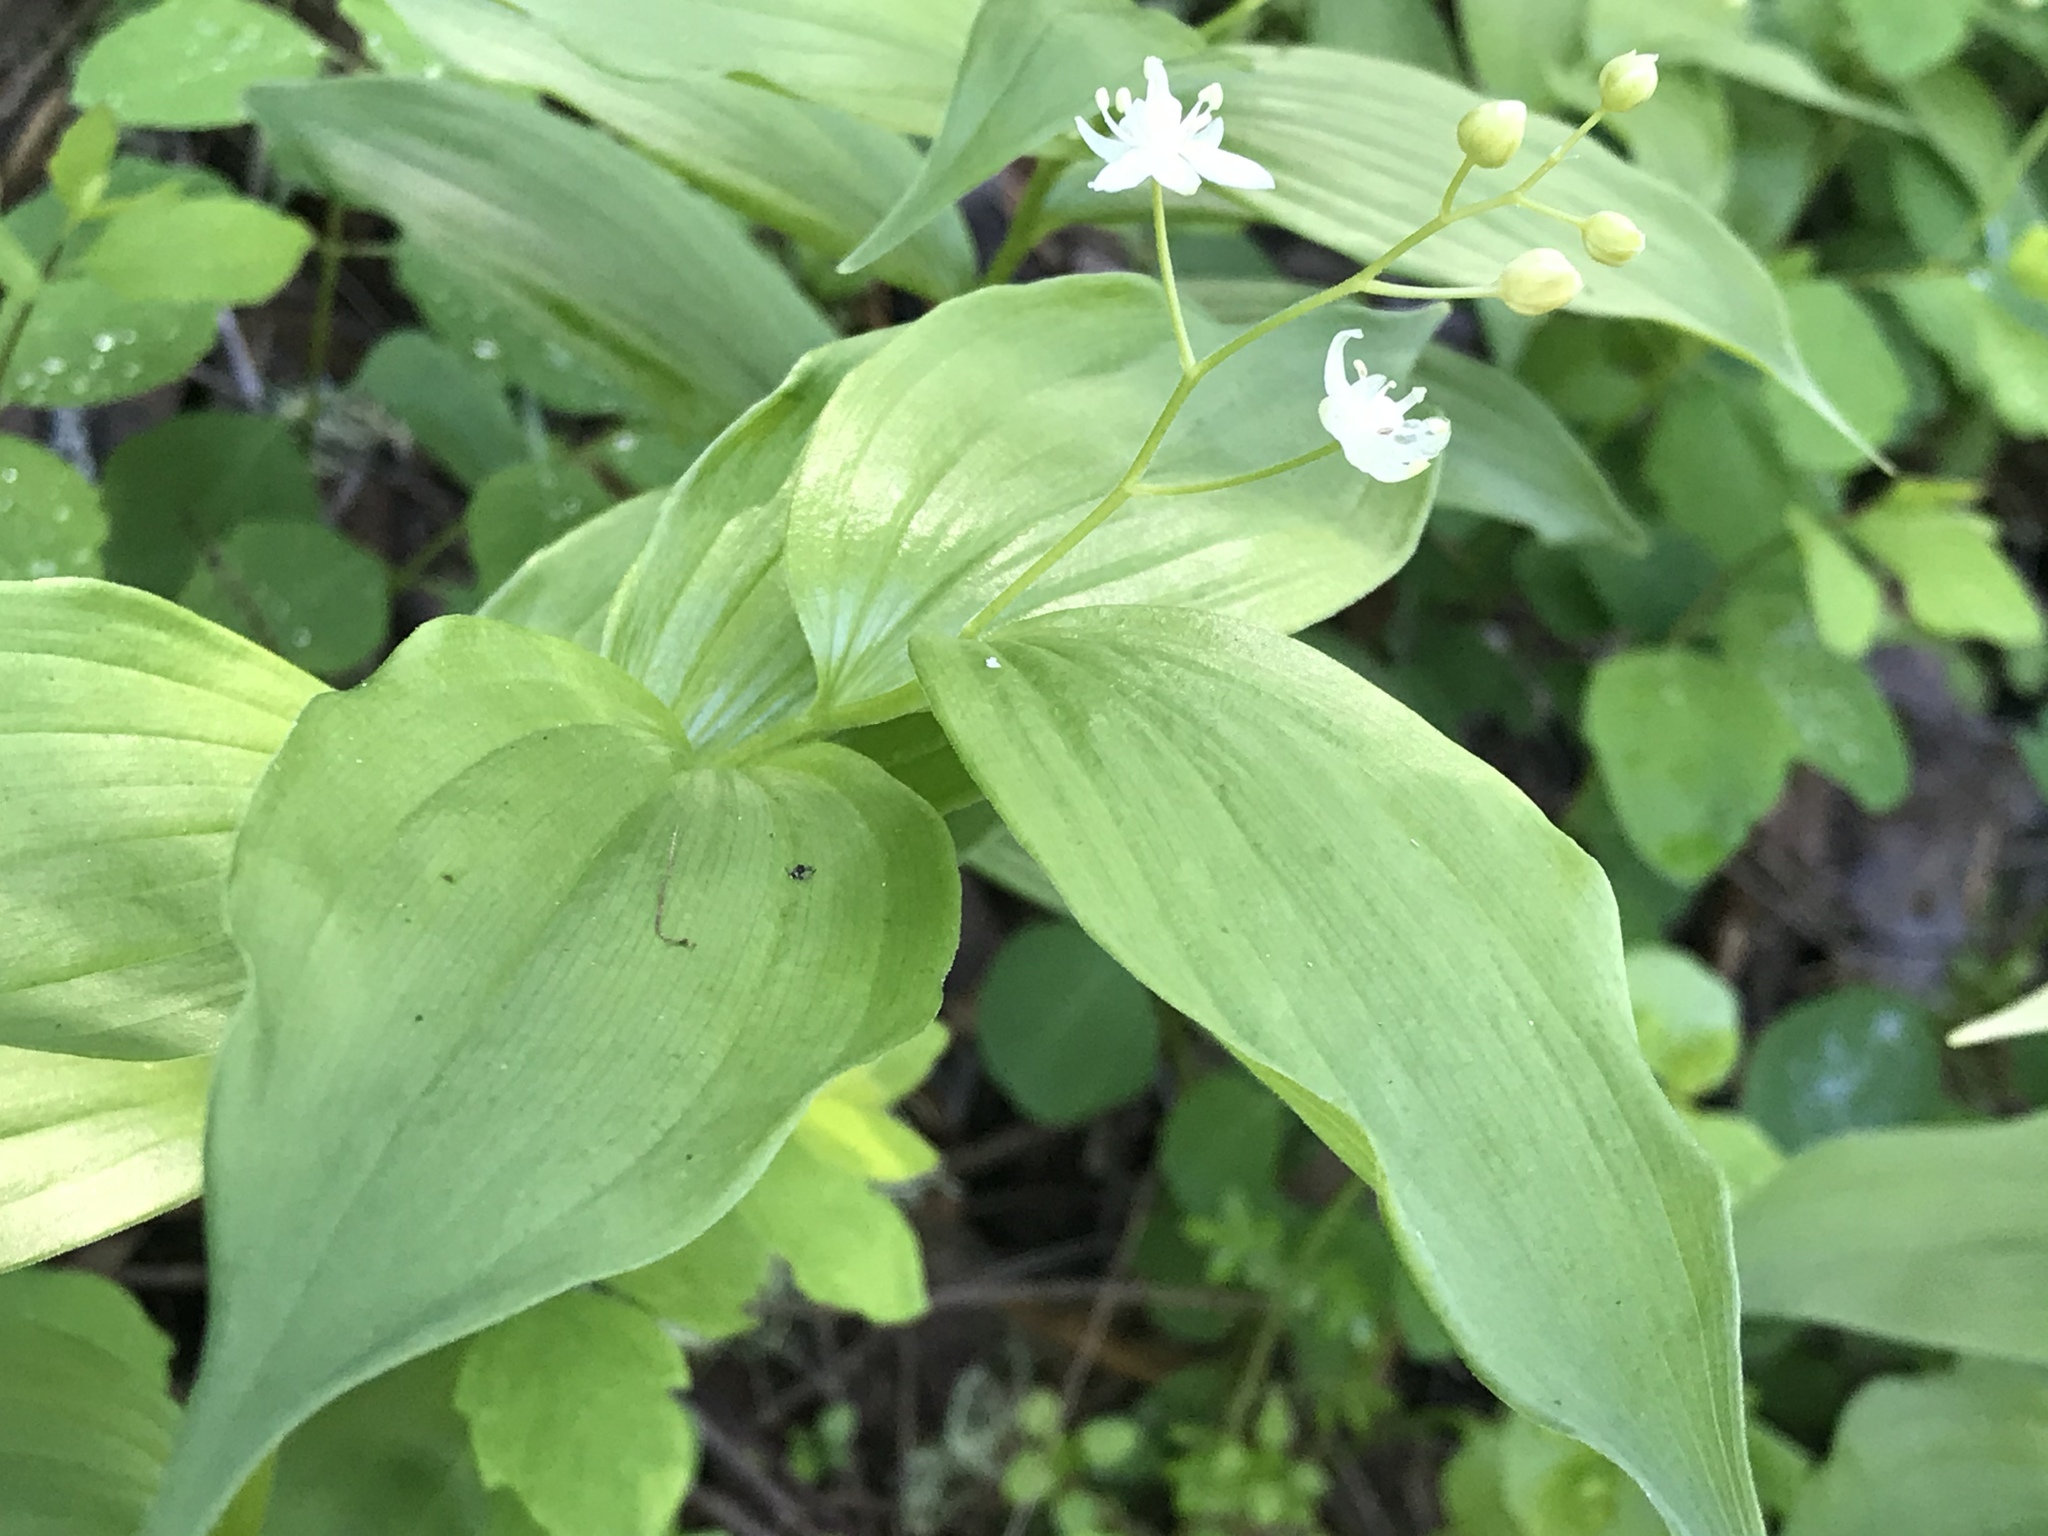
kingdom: Plantae
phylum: Tracheophyta
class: Liliopsida
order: Asparagales
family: Asparagaceae
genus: Maianthemum
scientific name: Maianthemum stellatum
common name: Little false solomon's seal
